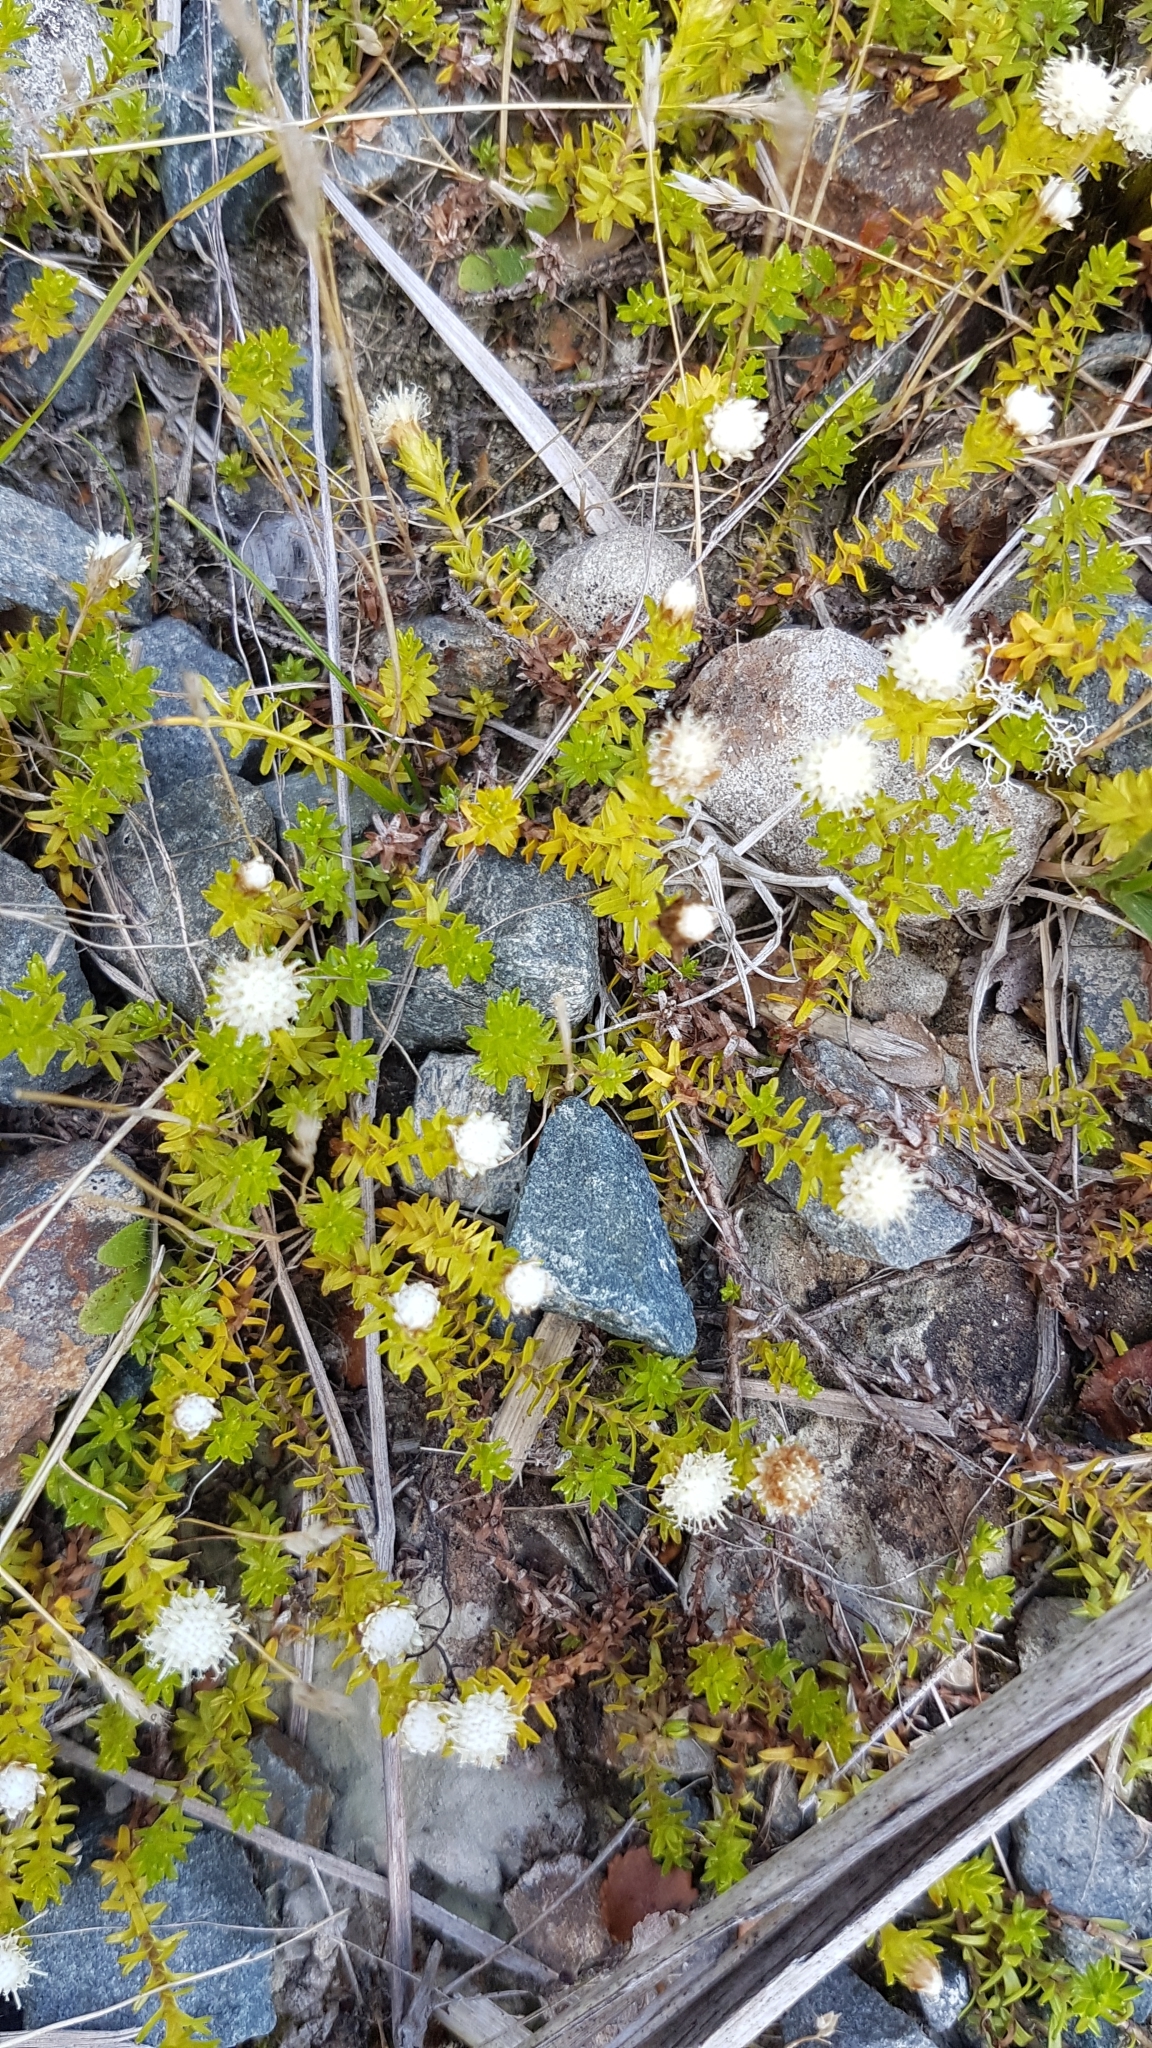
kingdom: Plantae
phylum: Tracheophyta
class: Magnoliopsida
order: Asterales
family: Asteraceae
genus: Raoulia
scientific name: Raoulia glabra
